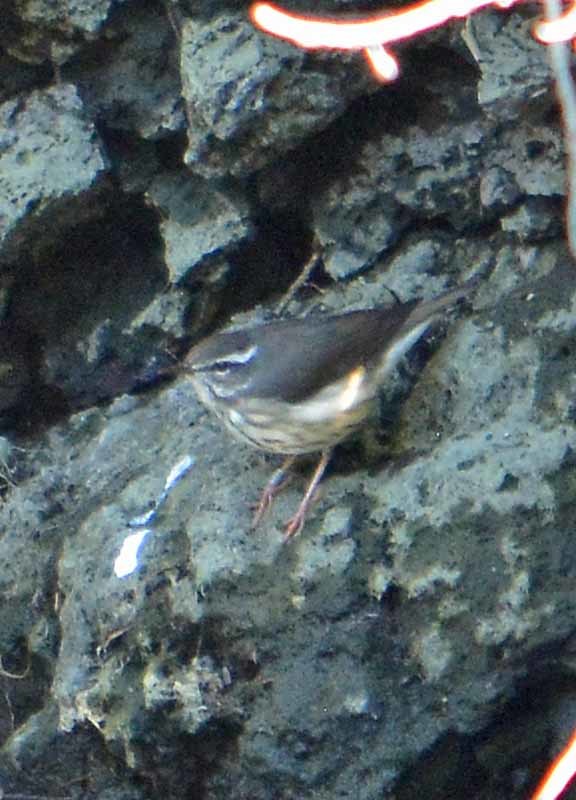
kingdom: Animalia
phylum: Chordata
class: Aves
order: Passeriformes
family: Parulidae
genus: Parkesia
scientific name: Parkesia motacilla
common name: Louisiana waterthrush
